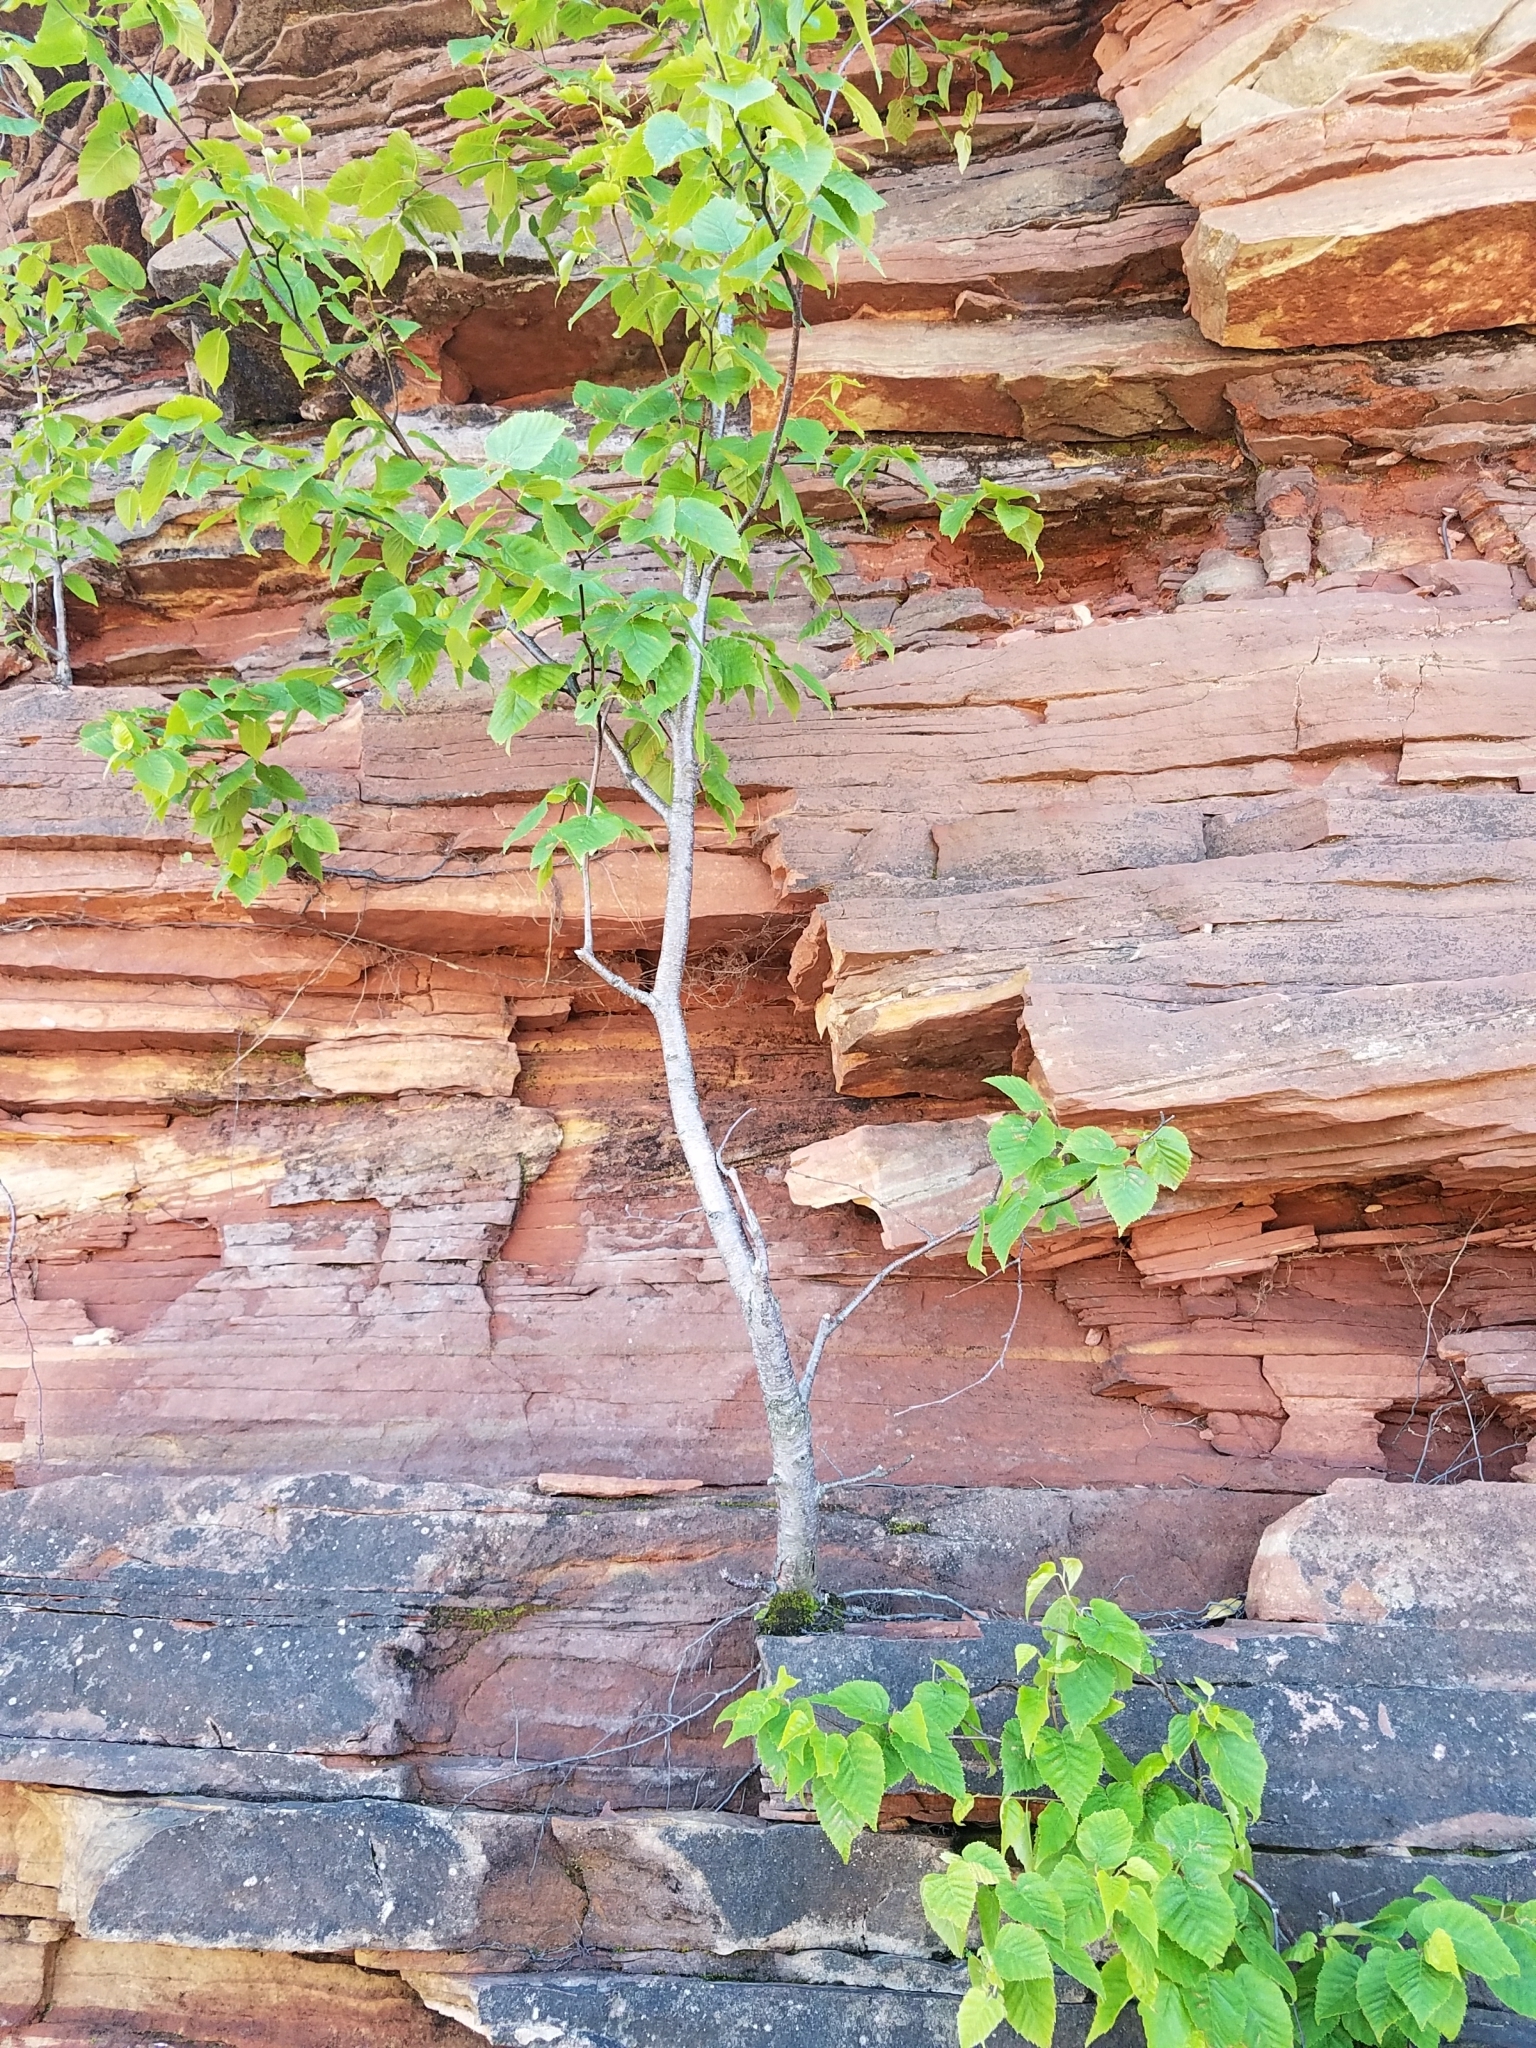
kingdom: Plantae
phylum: Tracheophyta
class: Magnoliopsida
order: Fagales
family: Betulaceae
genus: Betula
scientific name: Betula cordifolia
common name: Mountain white birch
